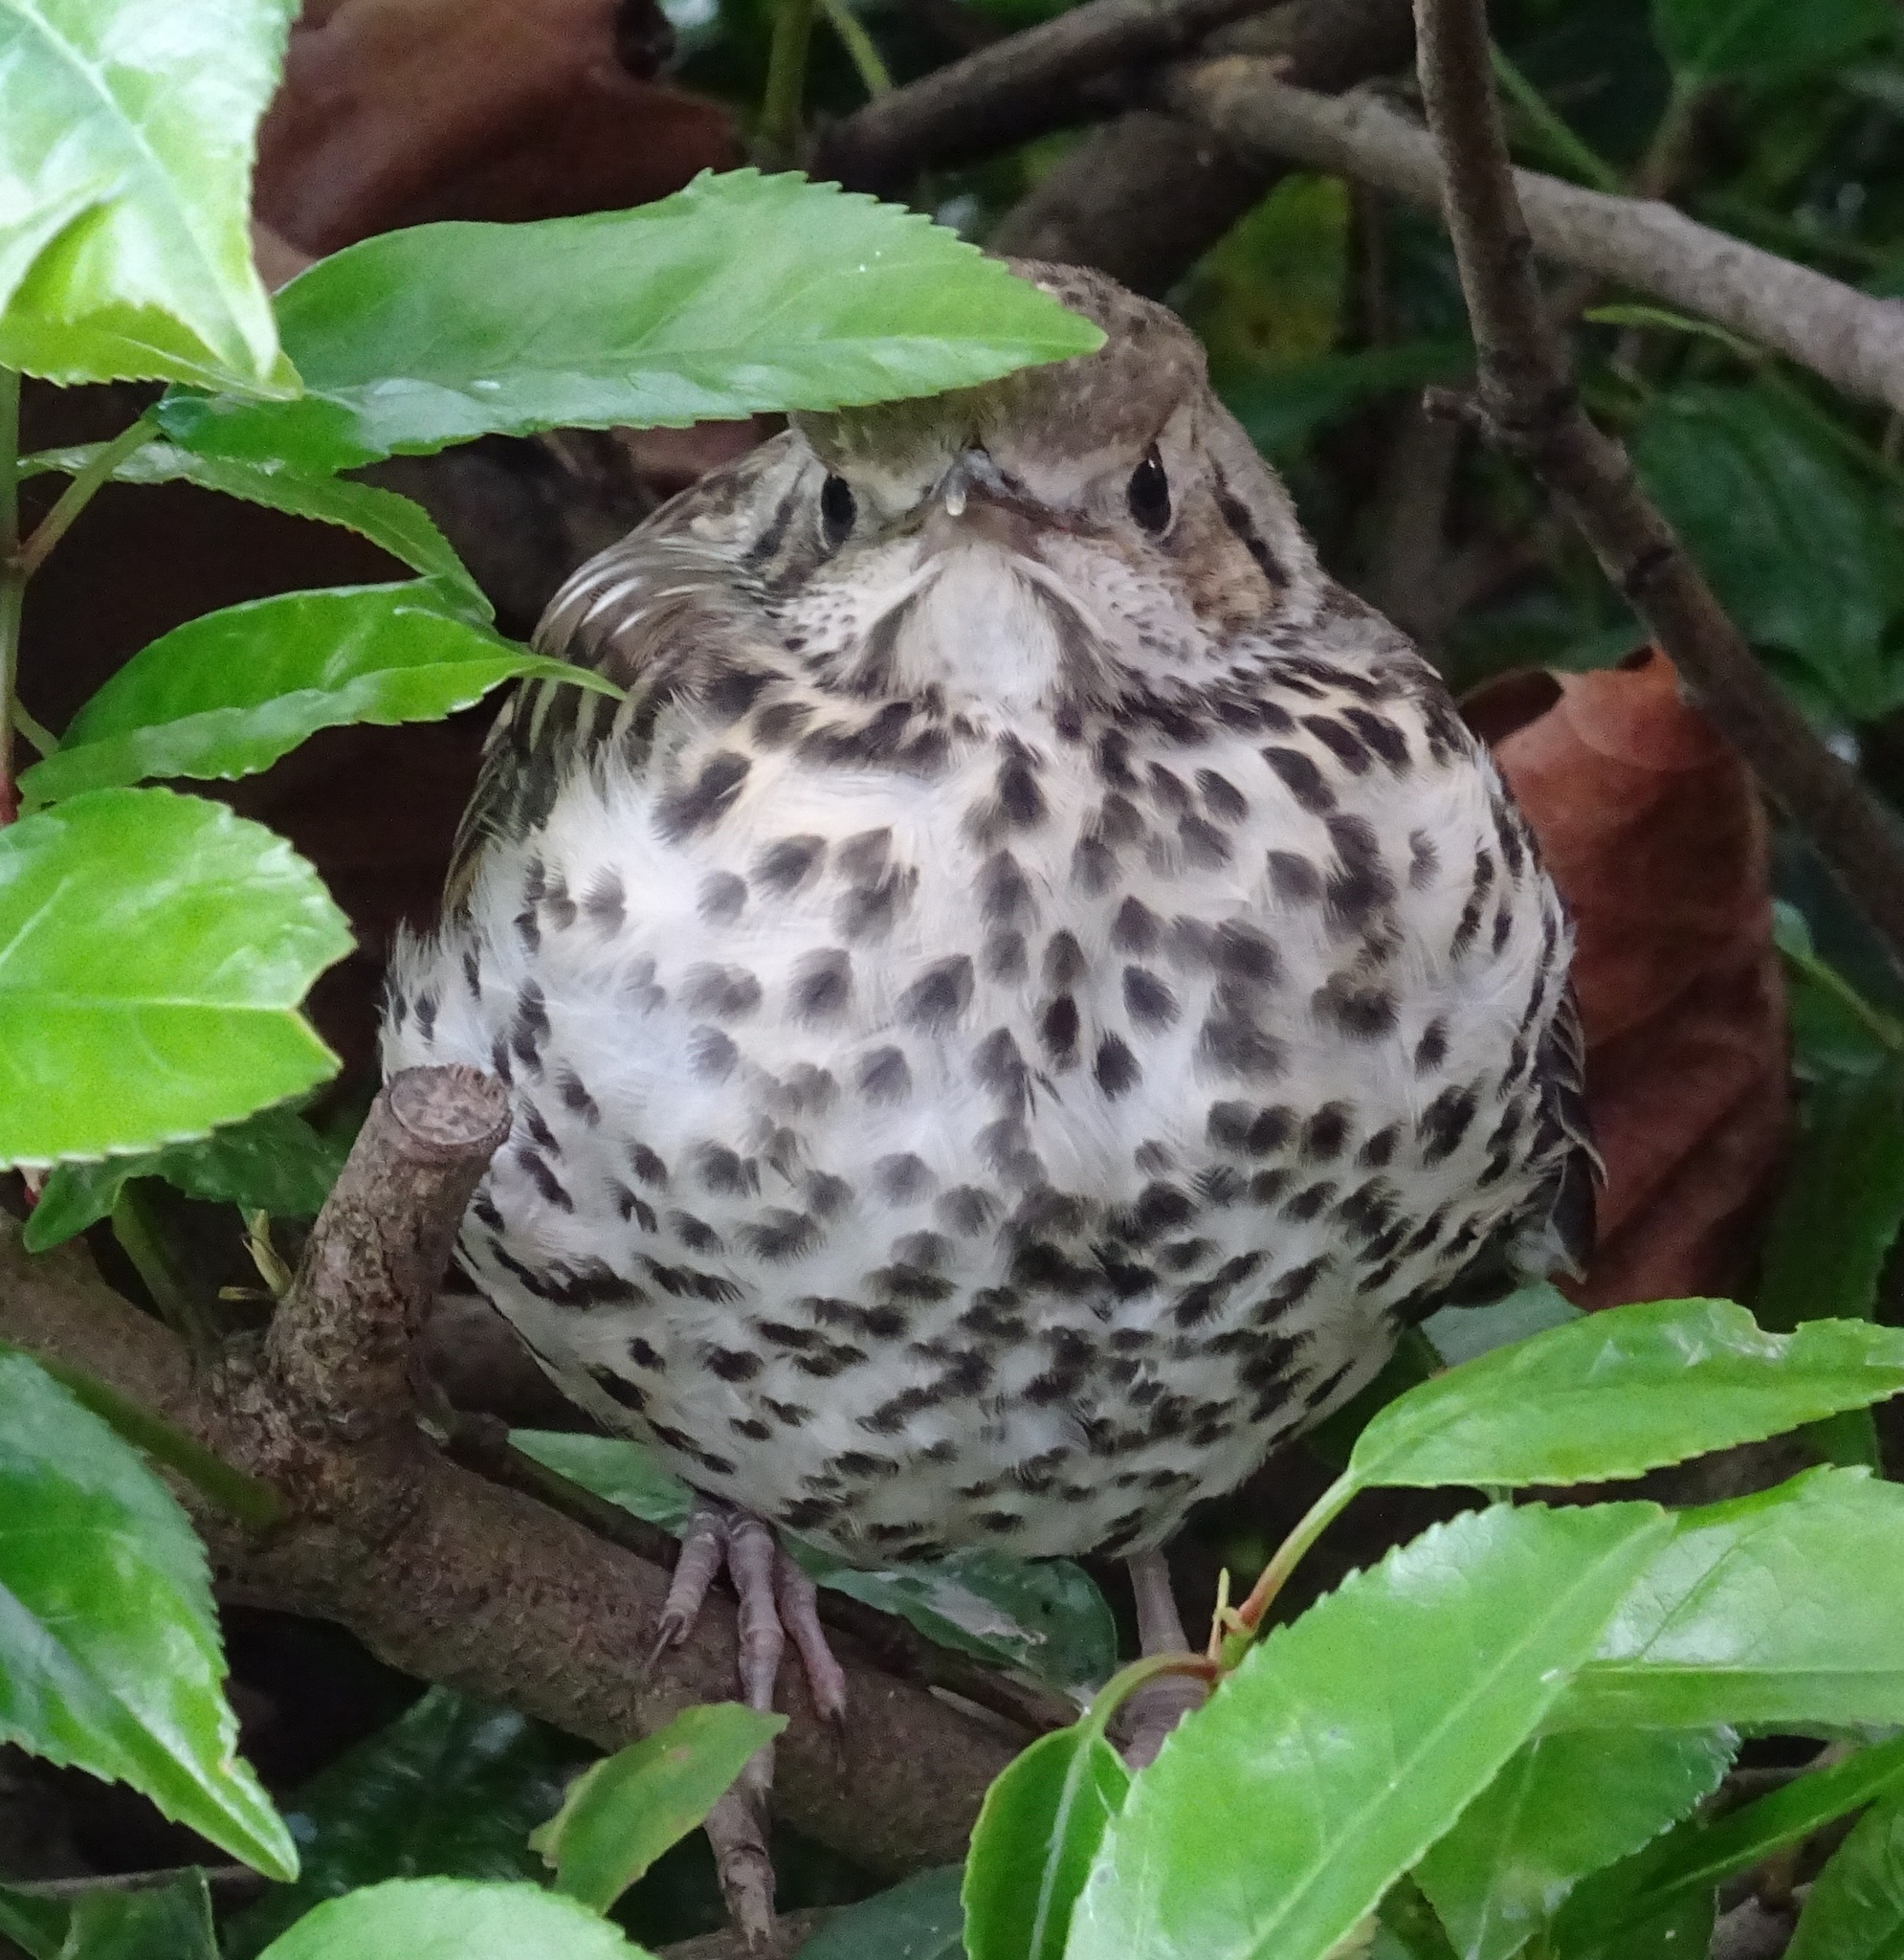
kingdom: Animalia
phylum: Chordata
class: Aves
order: Passeriformes
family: Turdidae
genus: Turdus
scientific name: Turdus philomelos
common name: Song thrush
